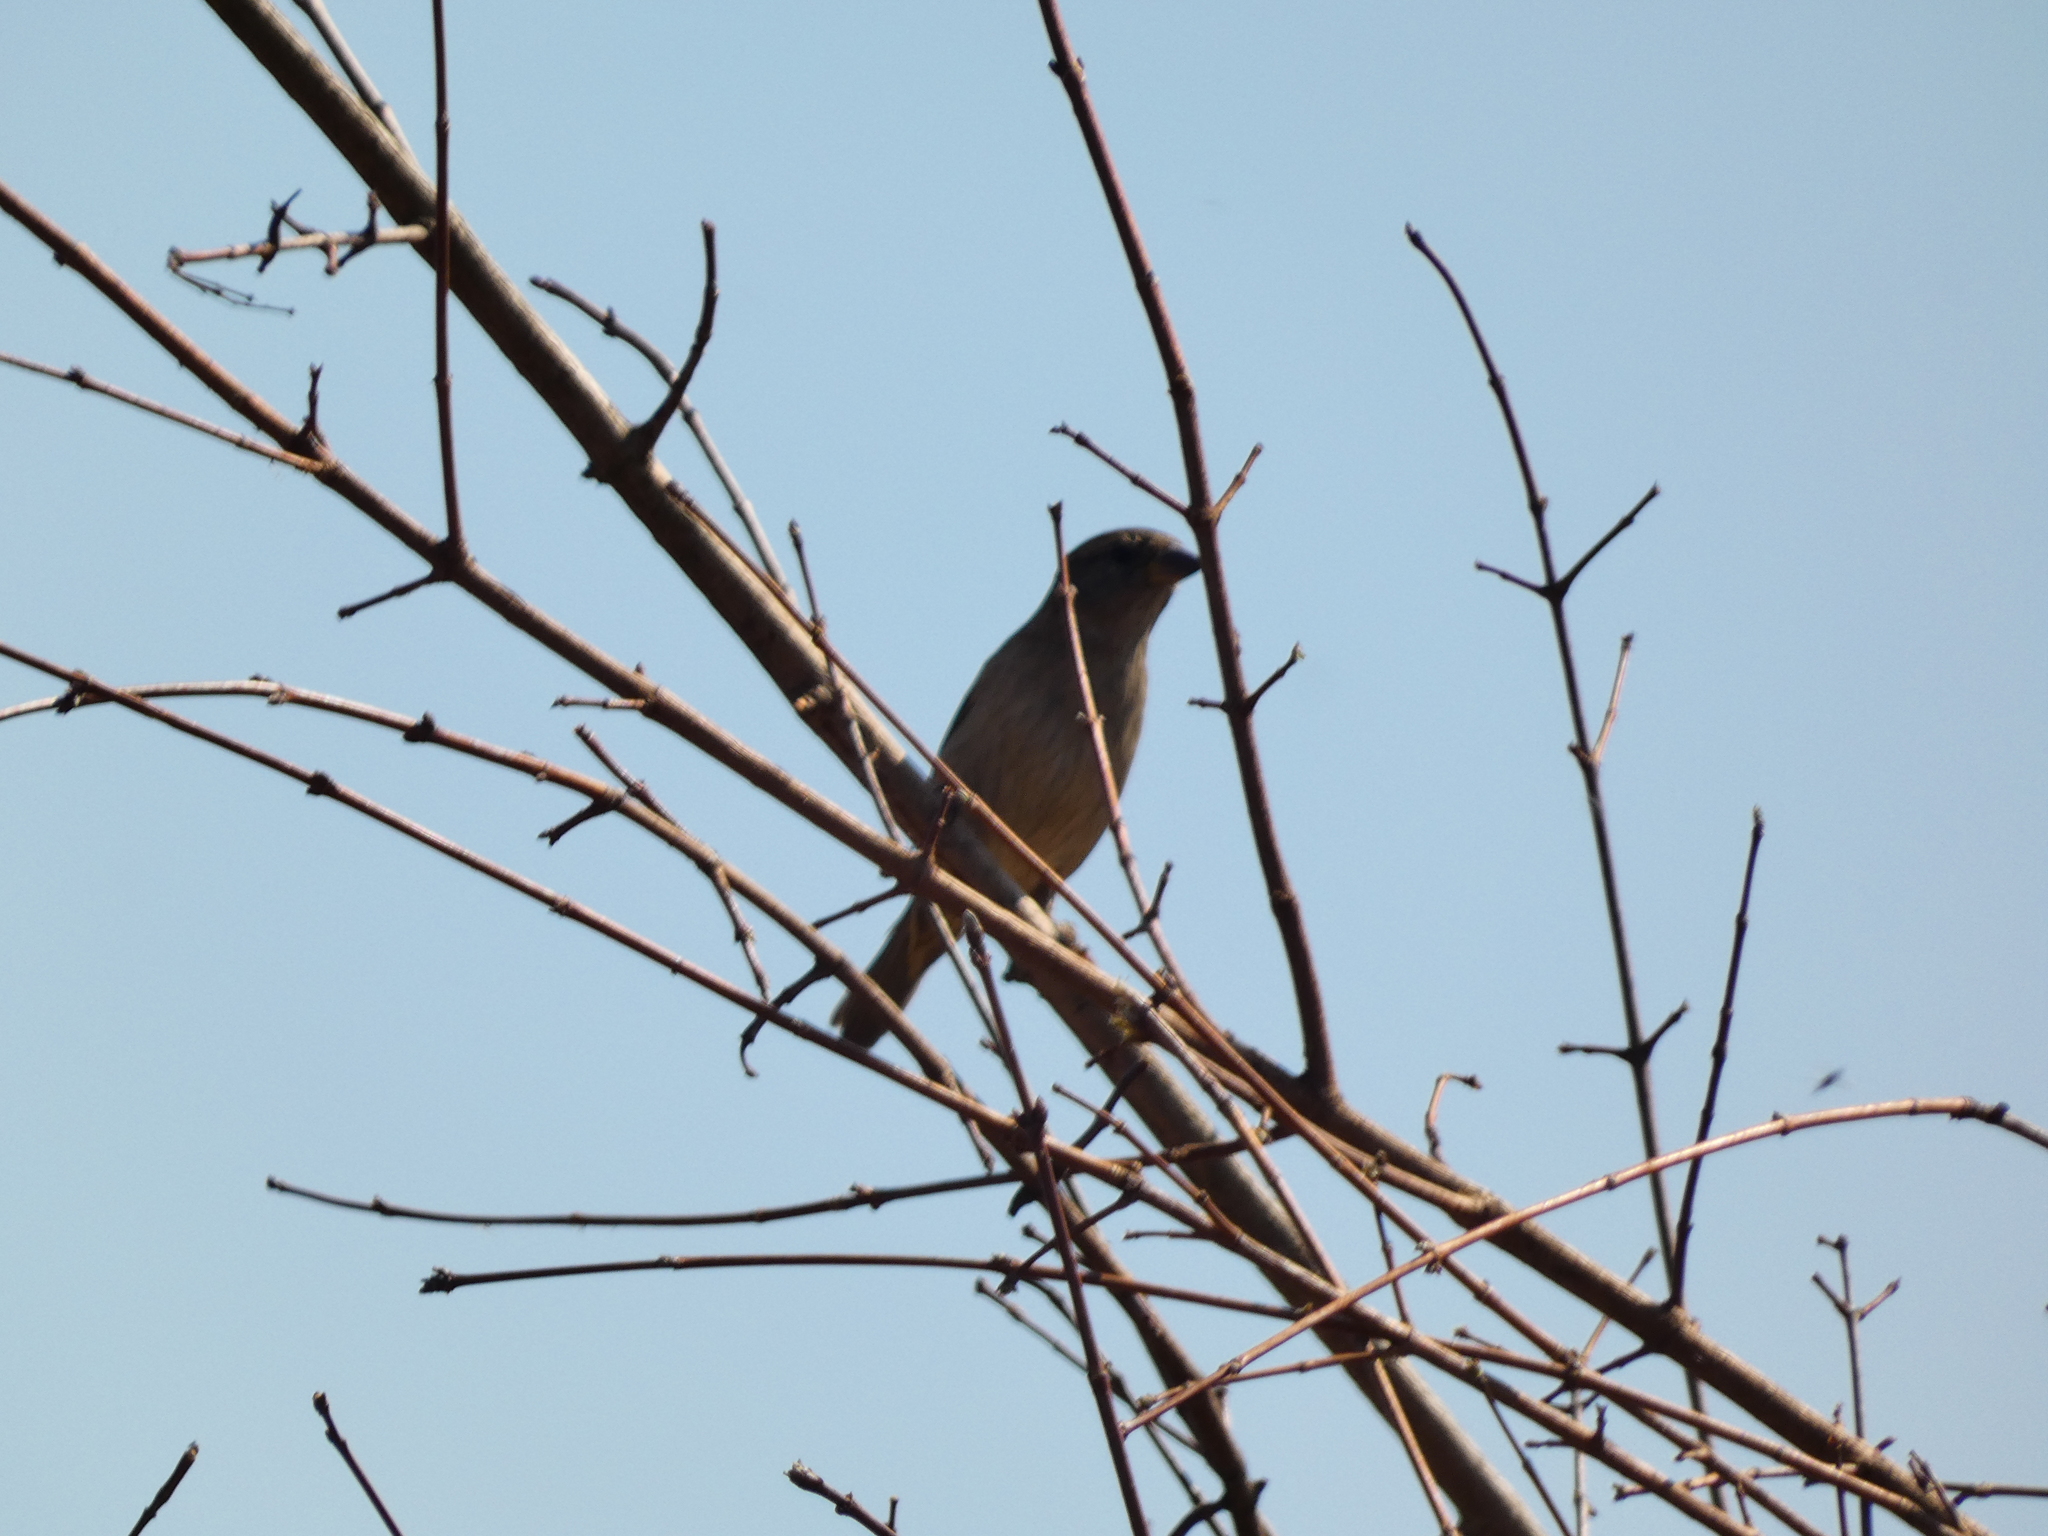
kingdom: Animalia
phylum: Chordata
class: Aves
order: Passeriformes
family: Passeridae
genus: Passer
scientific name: Passer domesticus
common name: House sparrow
